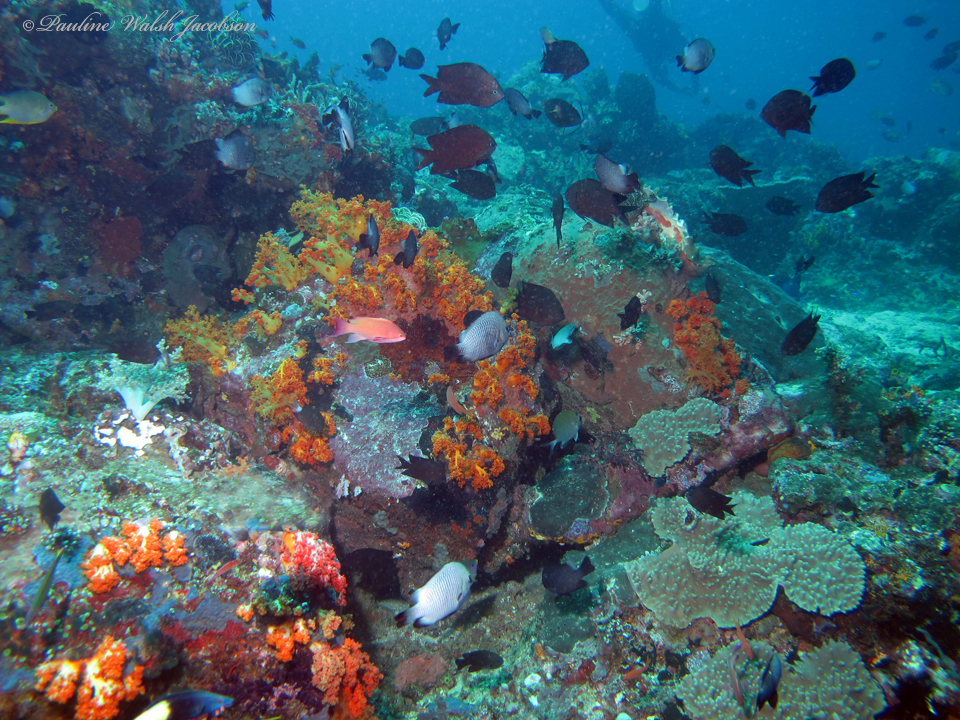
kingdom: Animalia
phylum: Chordata
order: Perciformes
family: Pomacentridae
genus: Dascyllus
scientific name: Dascyllus trimaculatus
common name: Threespot dascyllus
